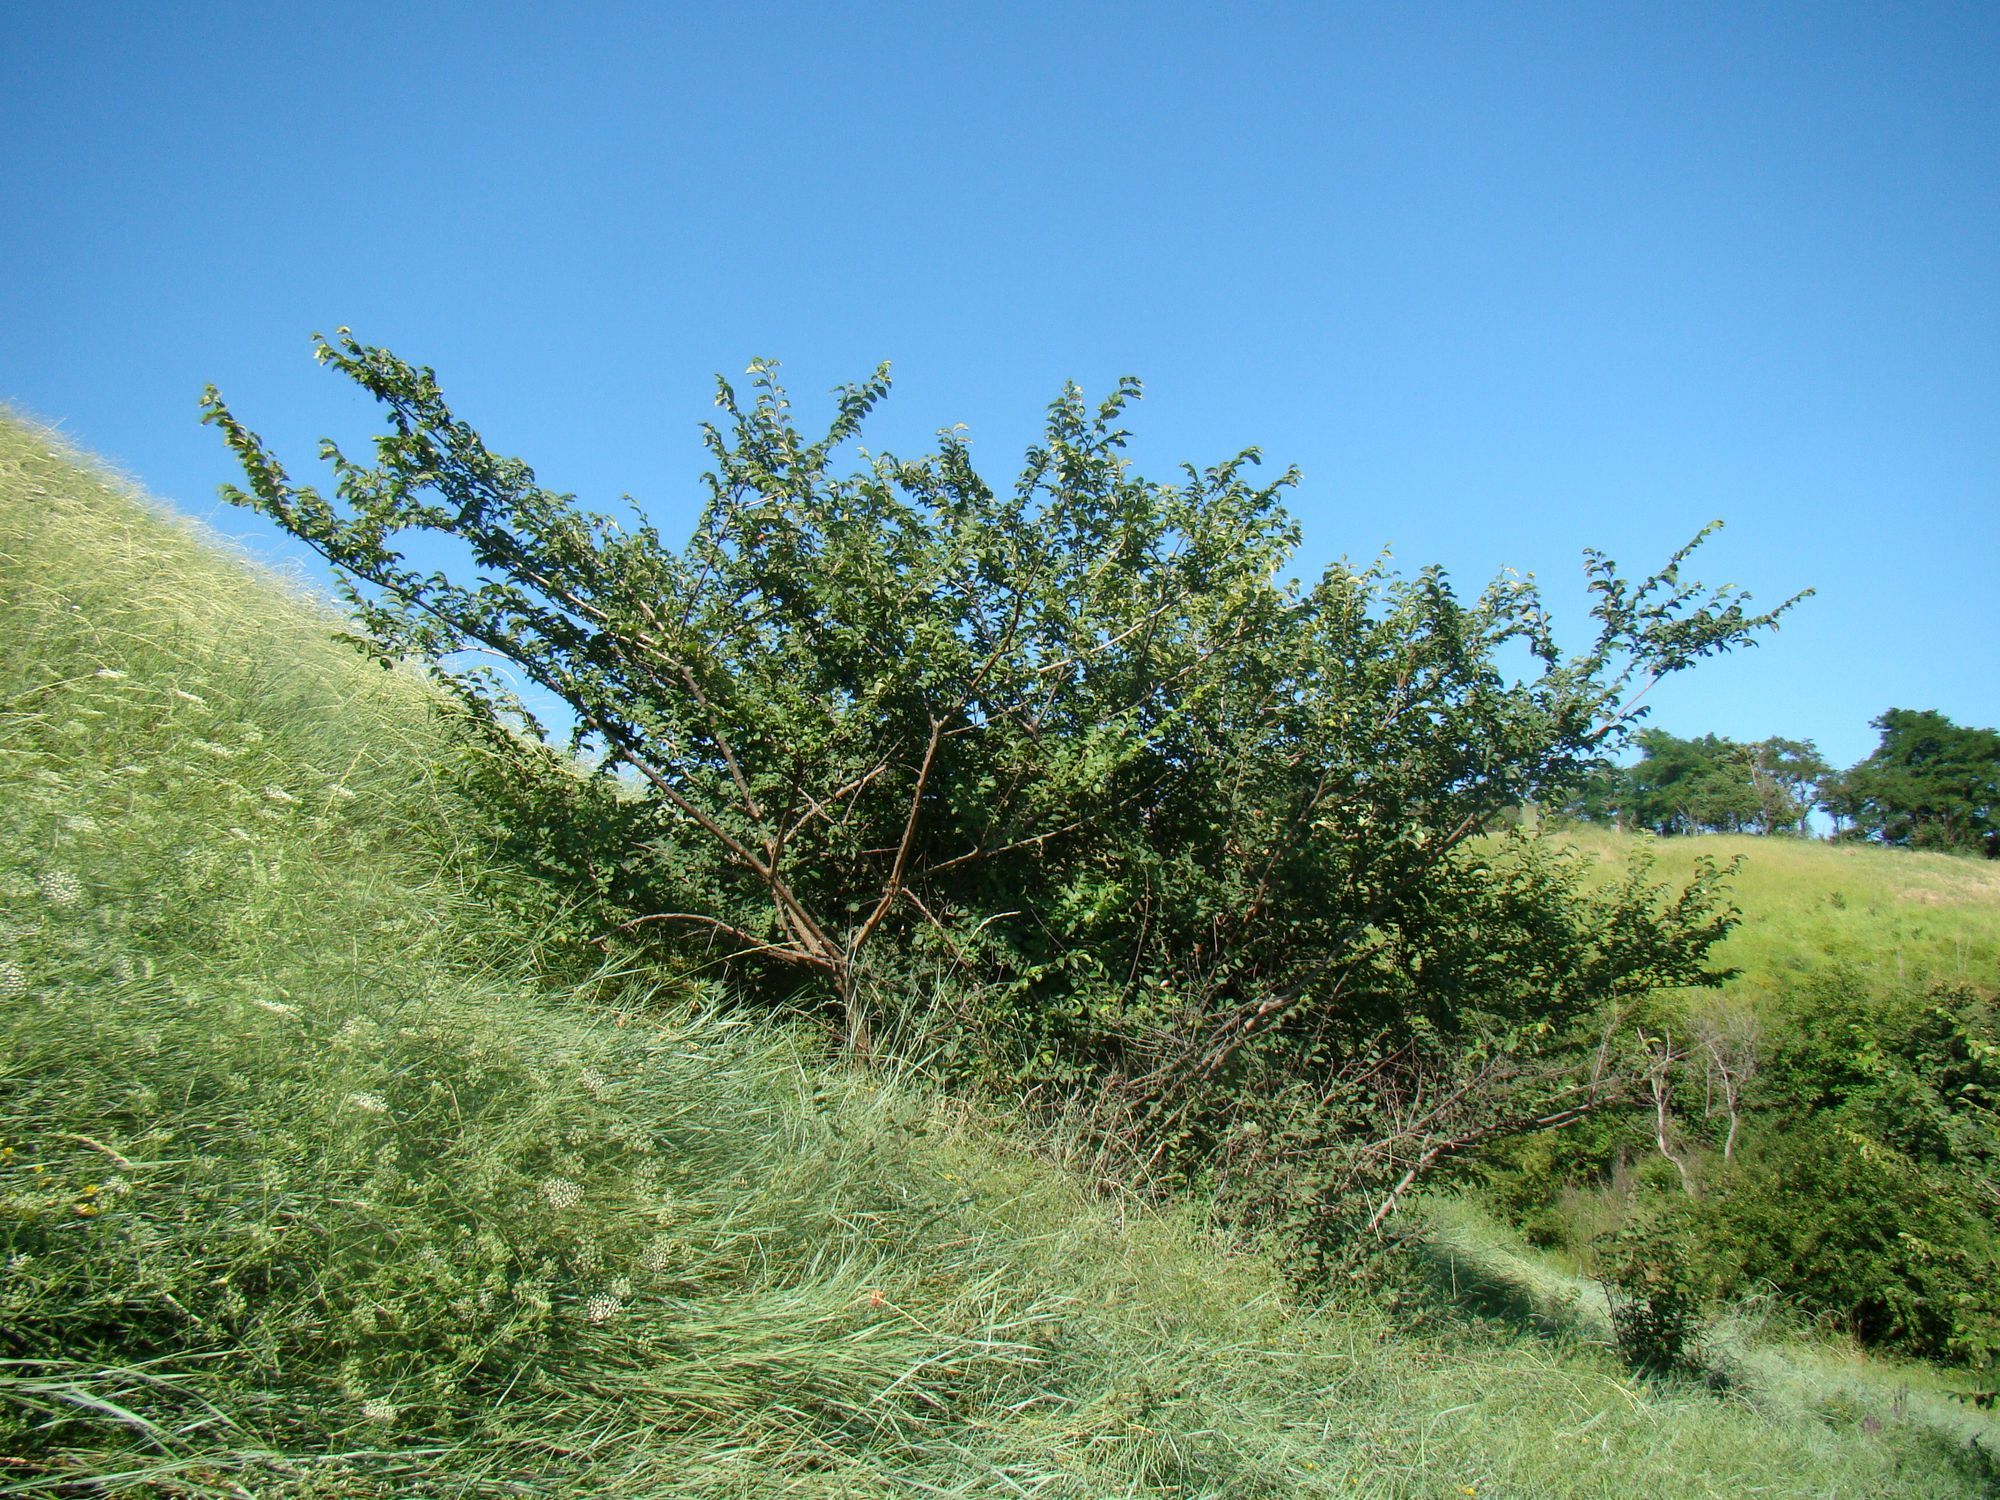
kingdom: Plantae
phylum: Tracheophyta
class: Magnoliopsida
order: Rosales
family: Ulmaceae
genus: Ulmus
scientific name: Ulmus minor
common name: Small-leaved elm
